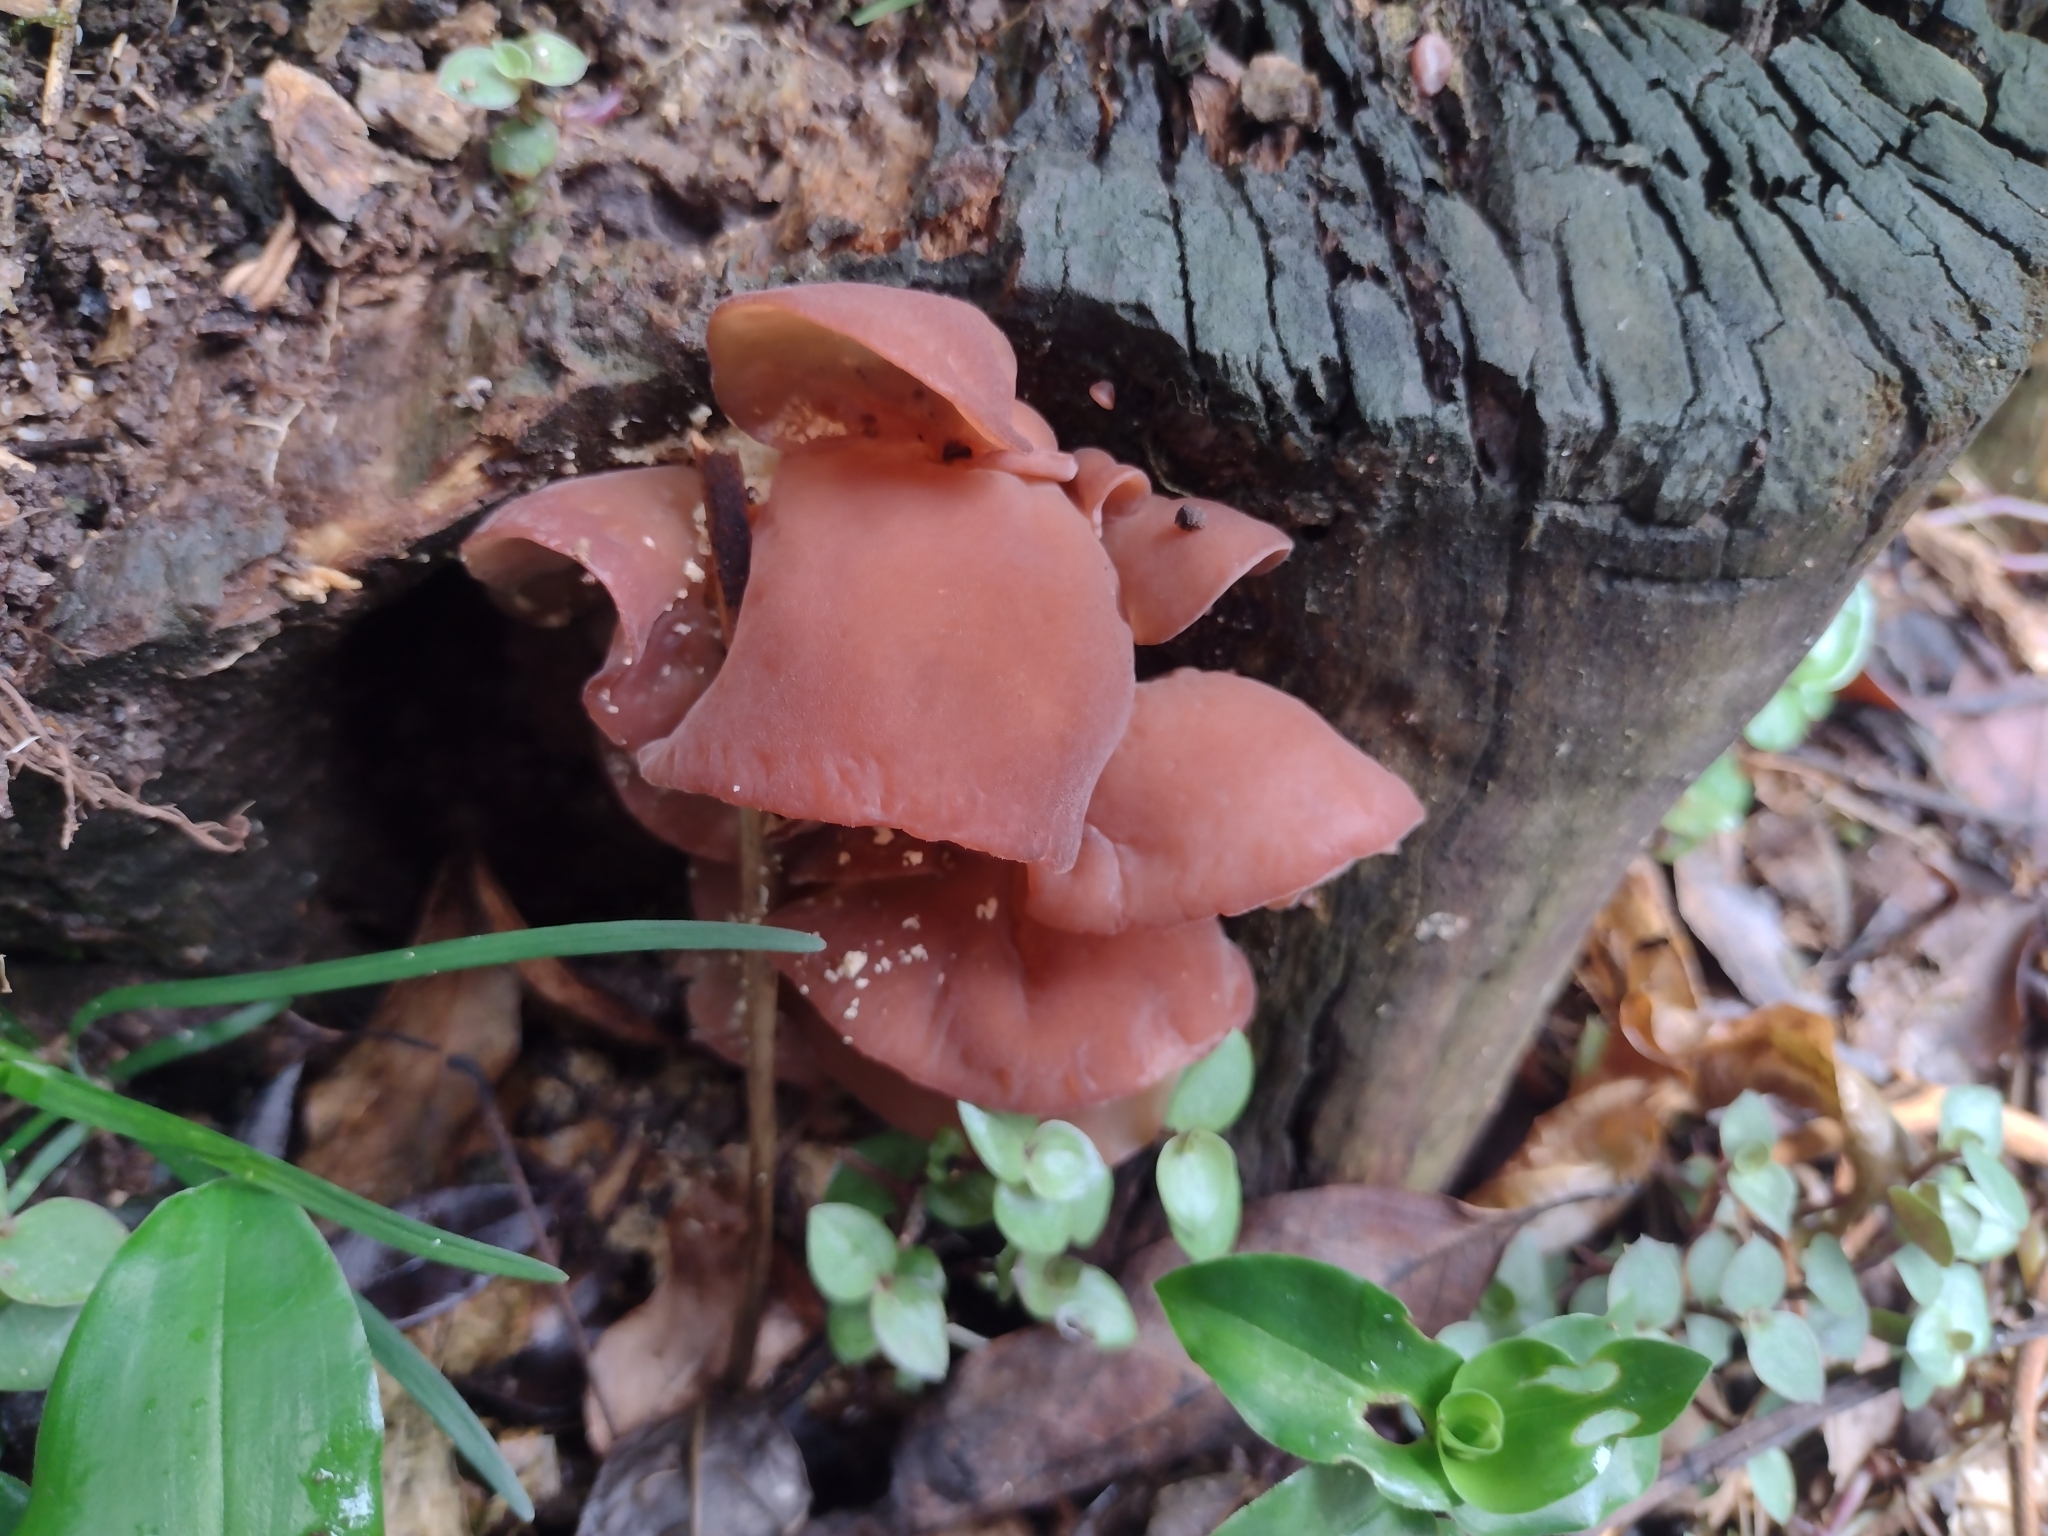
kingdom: Fungi
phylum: Basidiomycota
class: Agaricomycetes
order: Auriculariales
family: Auriculariaceae
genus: Auricularia
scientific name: Auricularia fuscosuccinea
